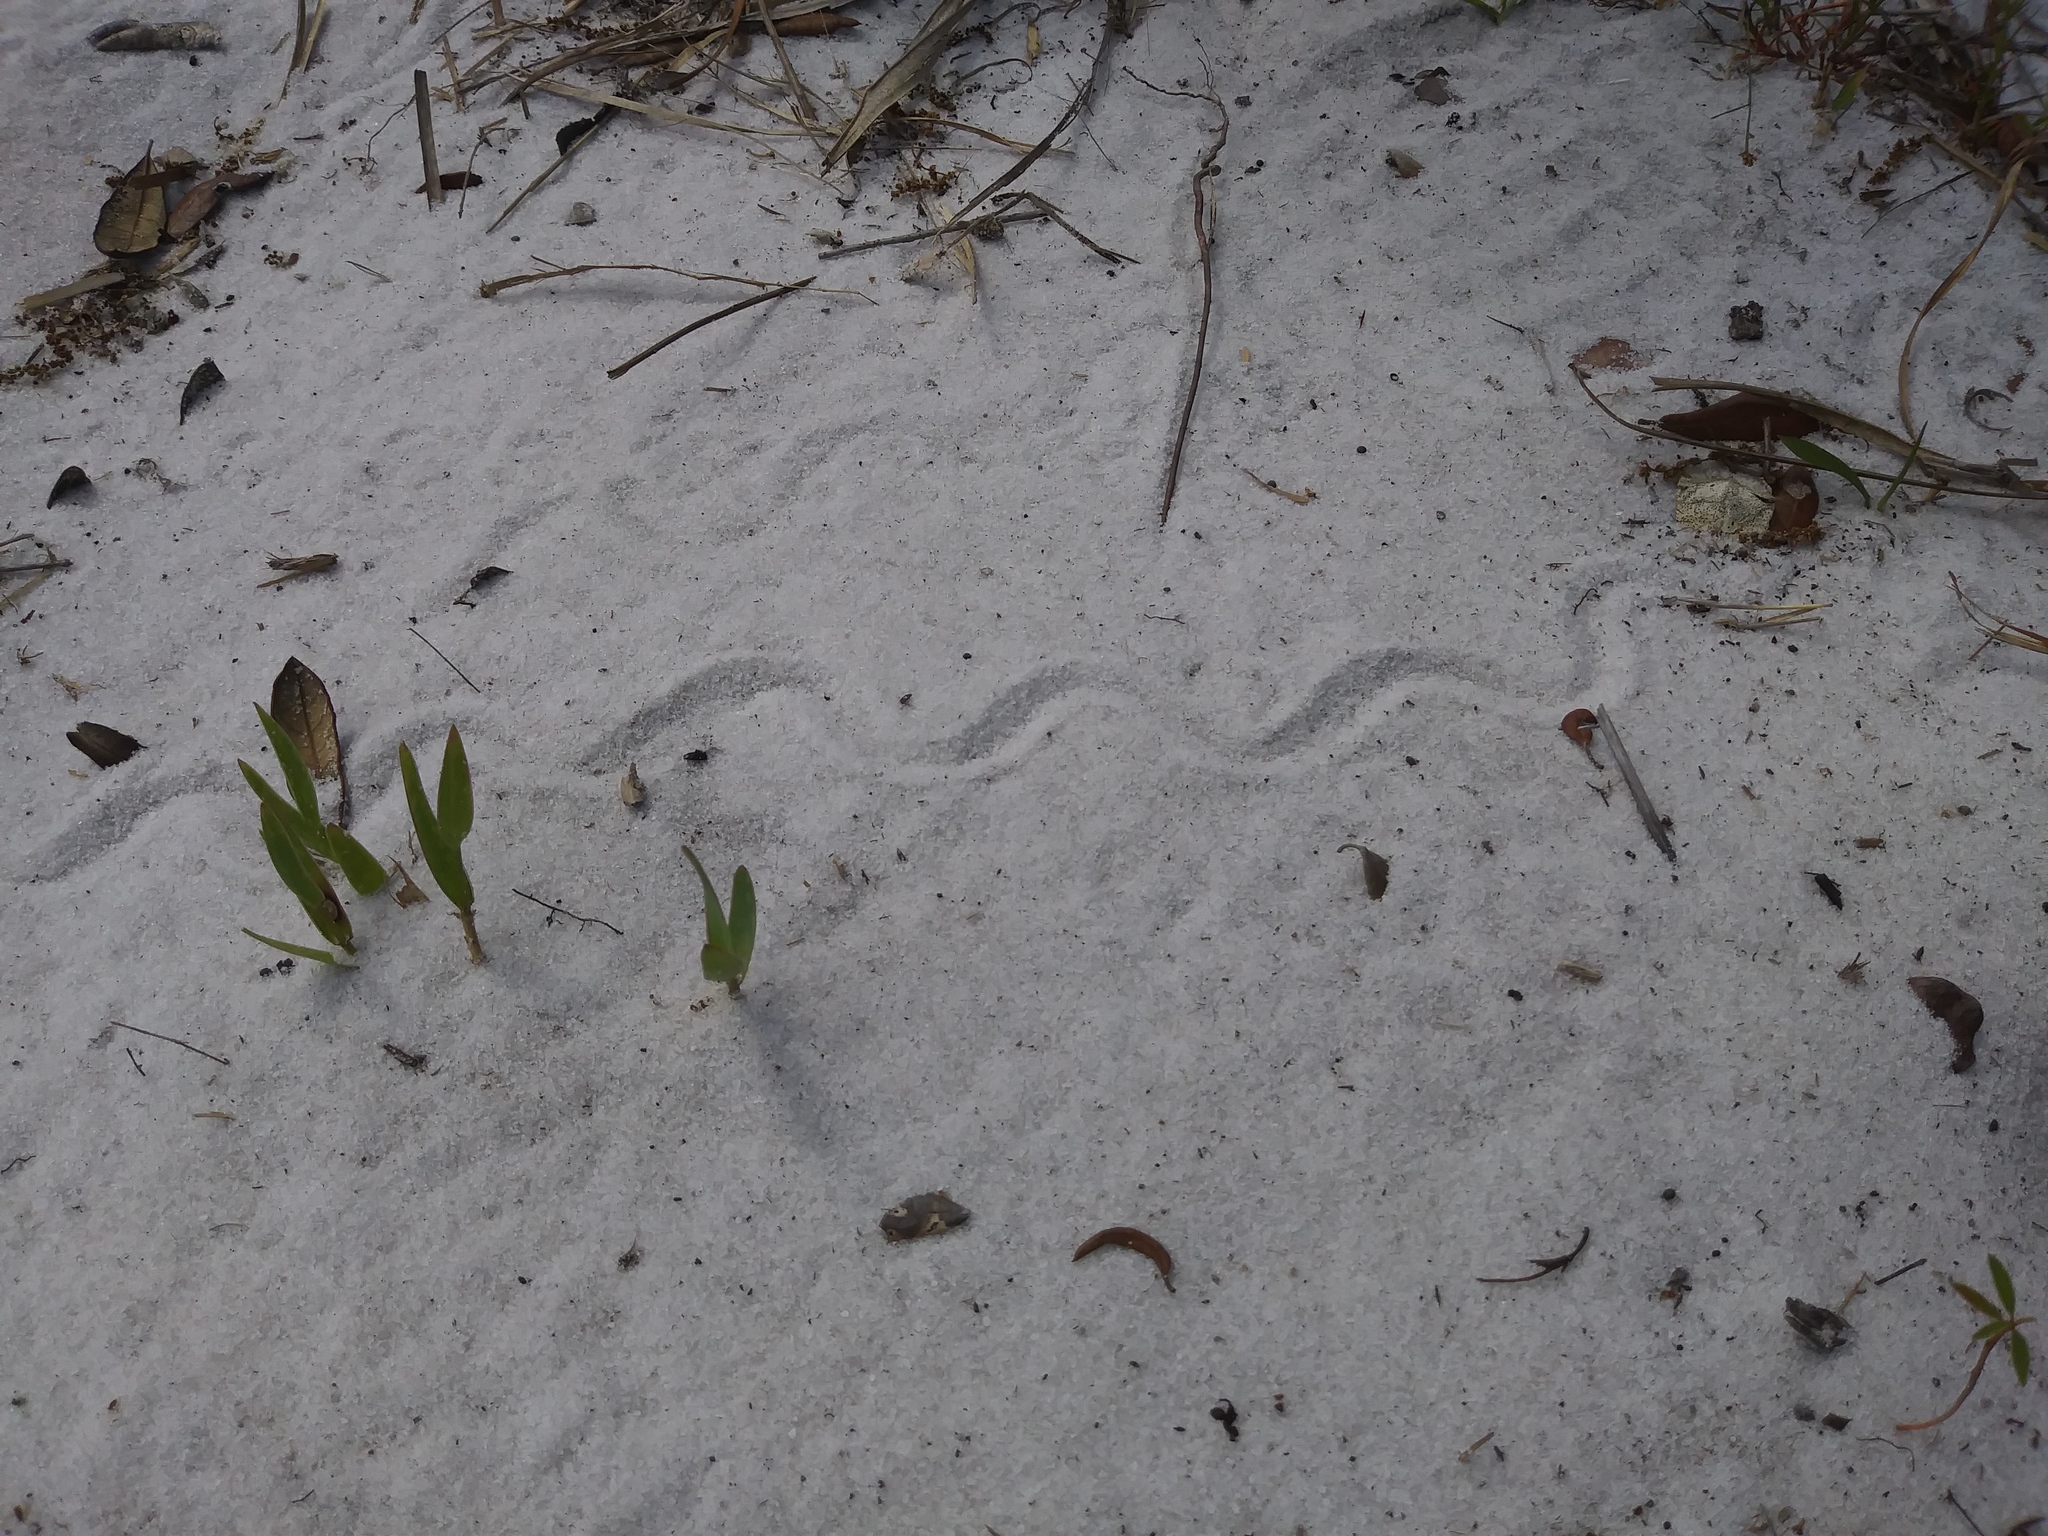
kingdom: Animalia
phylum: Chordata
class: Squamata
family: Scincidae
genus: Plestiodon
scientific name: Plestiodon reynoldsi
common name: Florida sand skink
